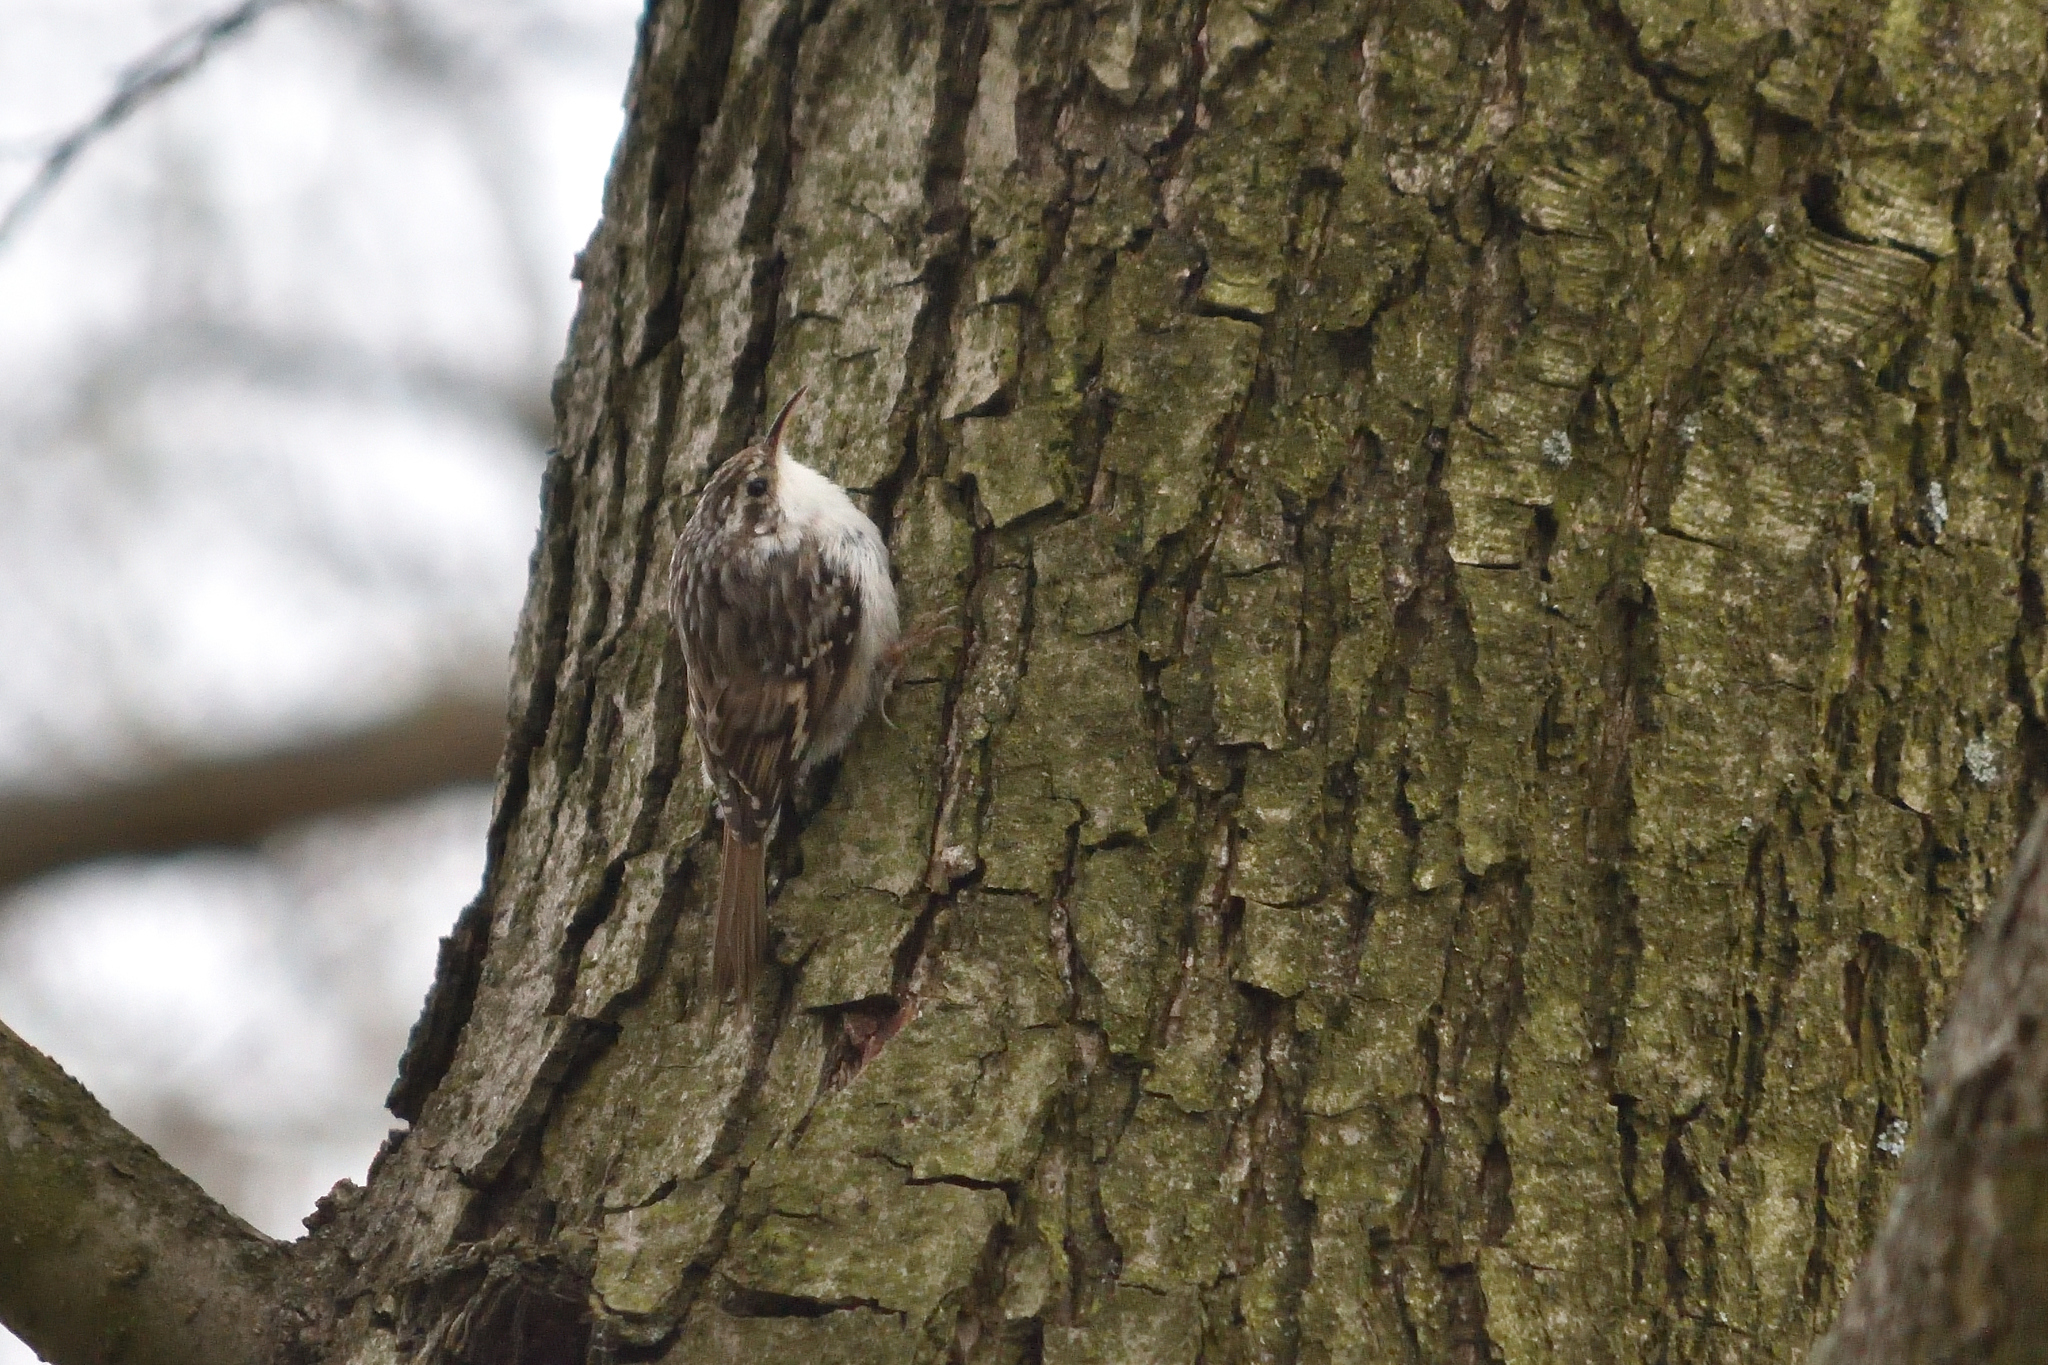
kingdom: Animalia
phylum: Chordata
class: Aves
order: Passeriformes
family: Certhiidae
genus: Certhia
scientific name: Certhia brachydactyla
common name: Short-toed treecreeper
